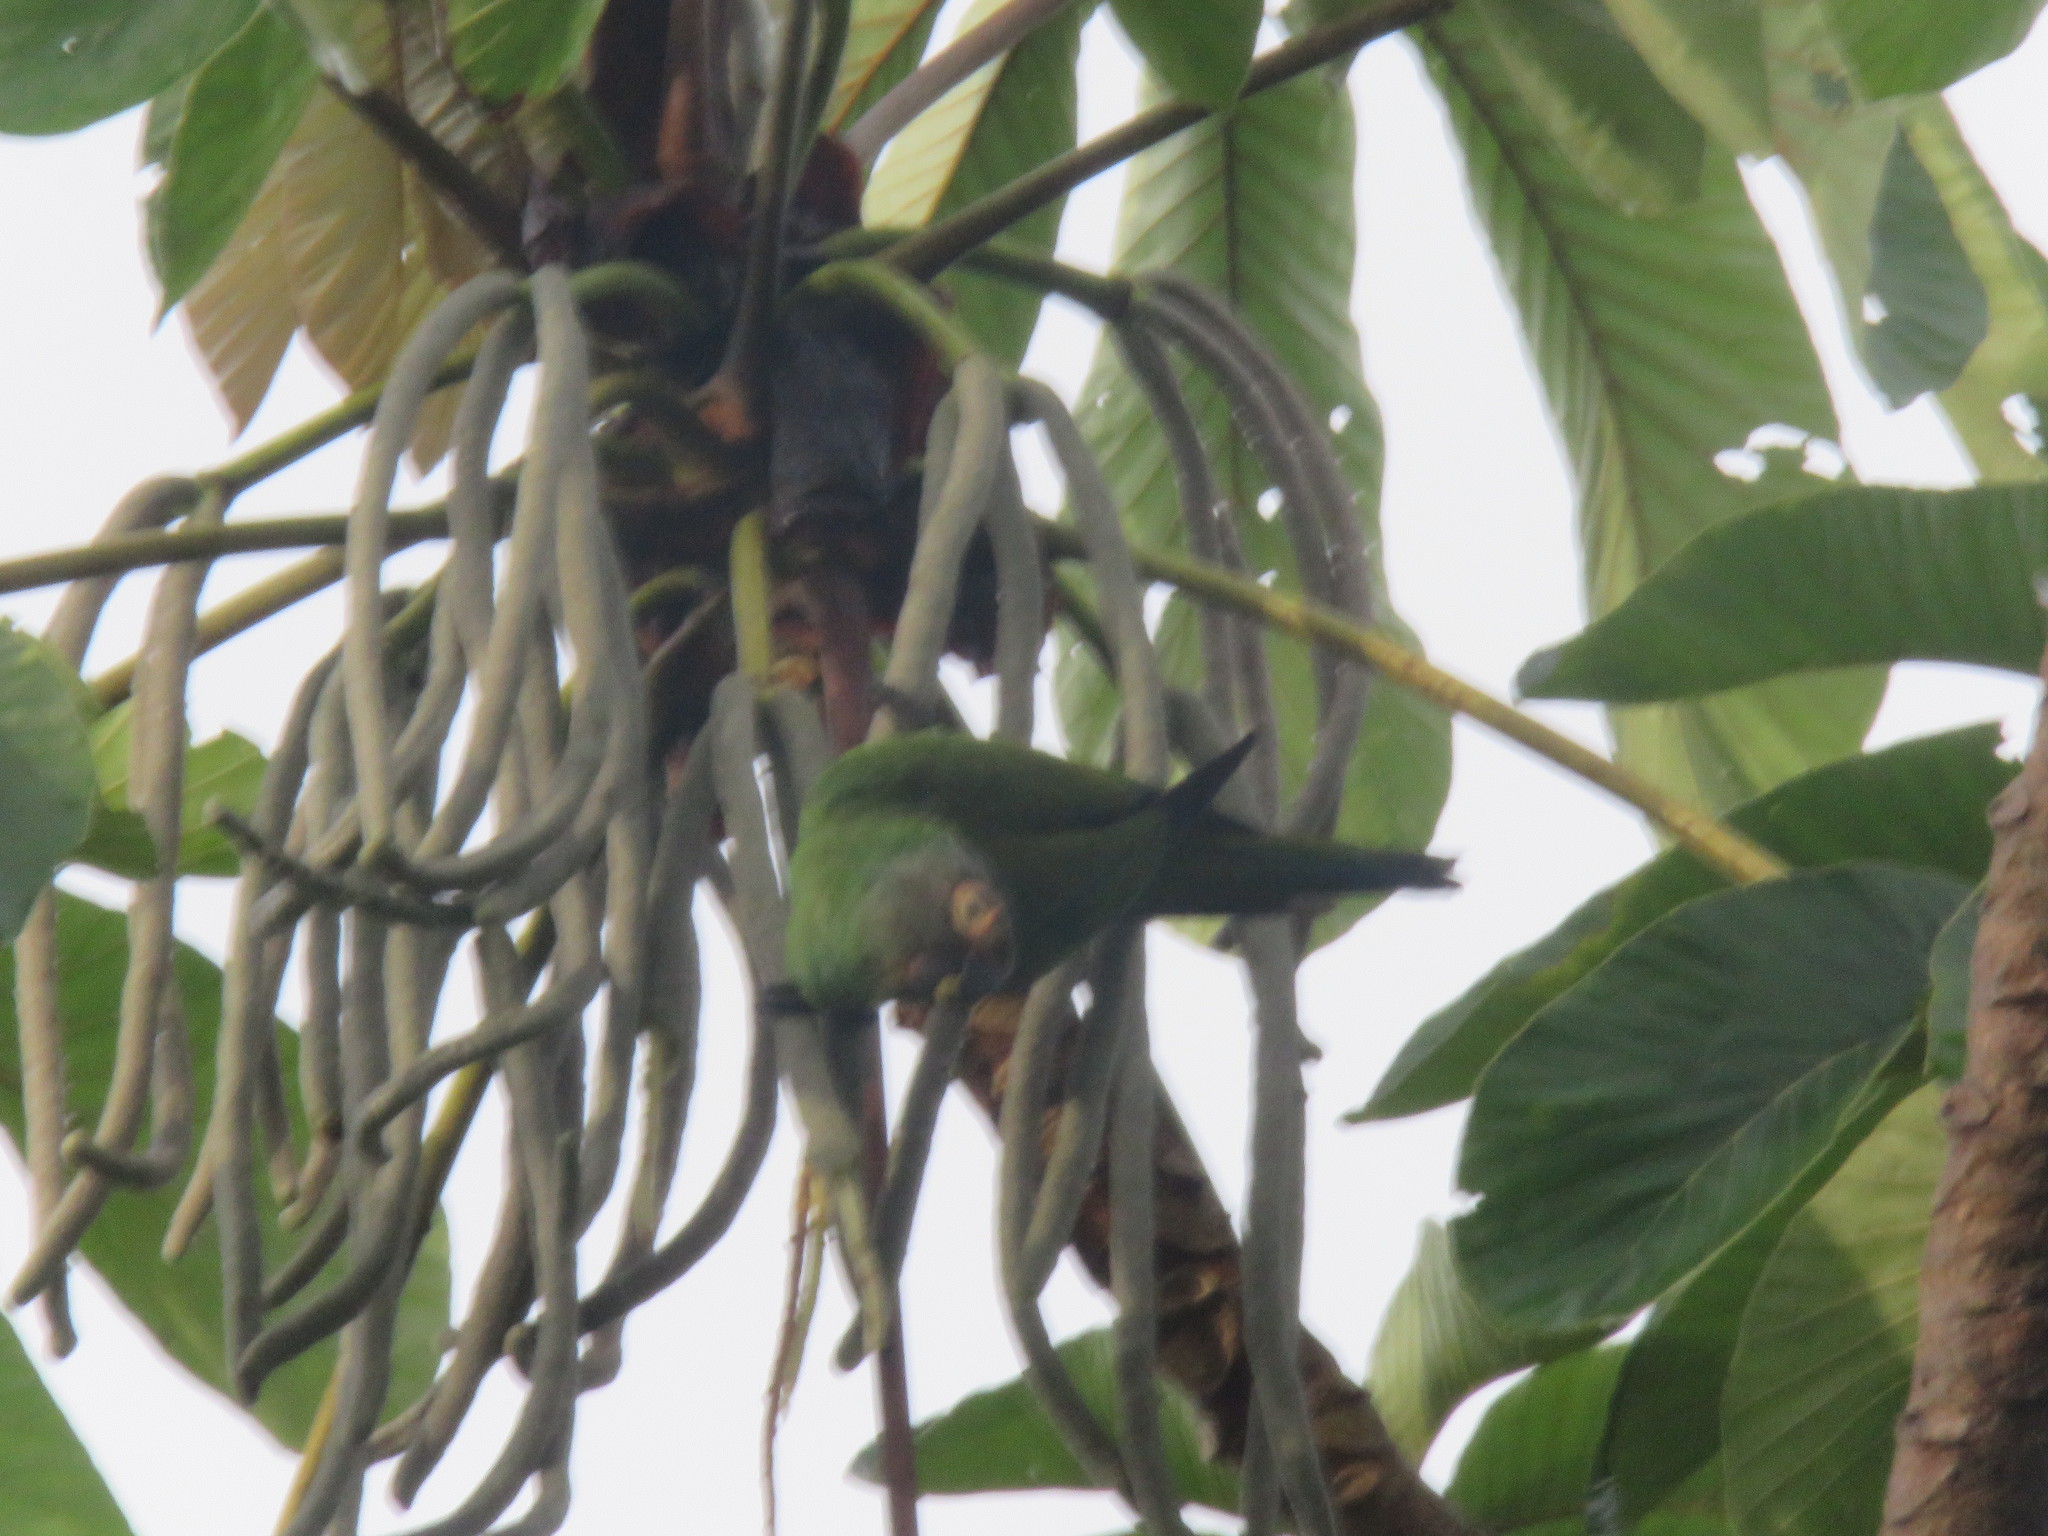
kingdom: Animalia
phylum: Chordata
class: Aves
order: Psittaciformes
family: Psittacidae
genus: Aratinga
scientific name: Aratinga weddellii
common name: Dusky-headed parakeet
